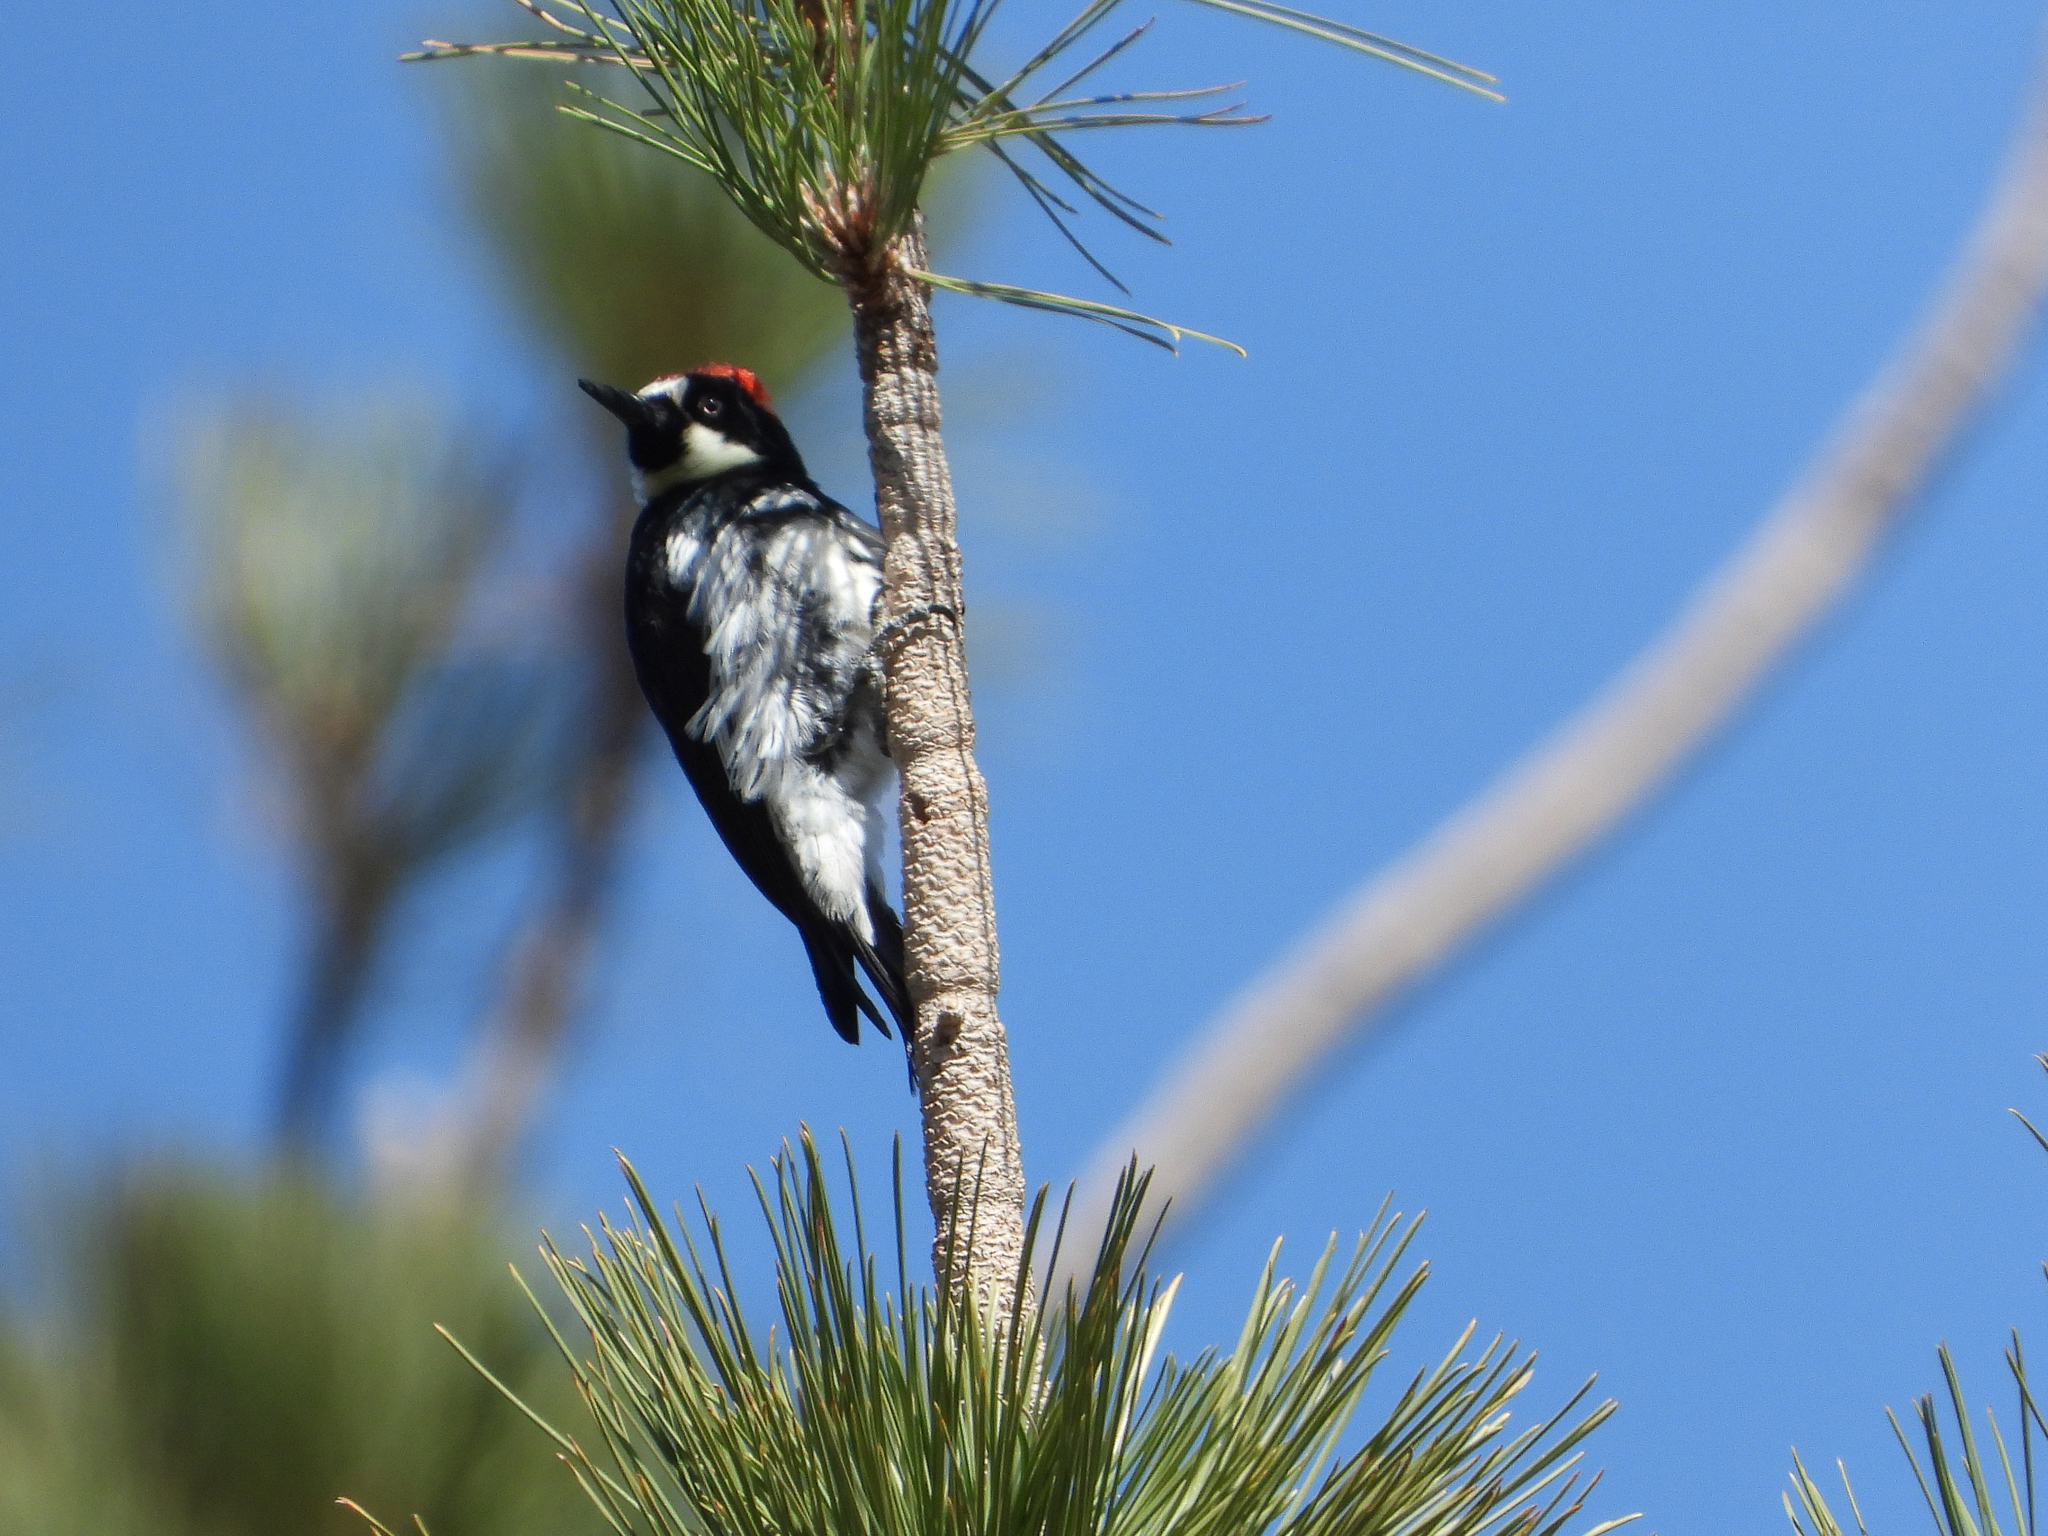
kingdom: Animalia
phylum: Chordata
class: Aves
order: Piciformes
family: Picidae
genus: Melanerpes
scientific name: Melanerpes formicivorus
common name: Acorn woodpecker
